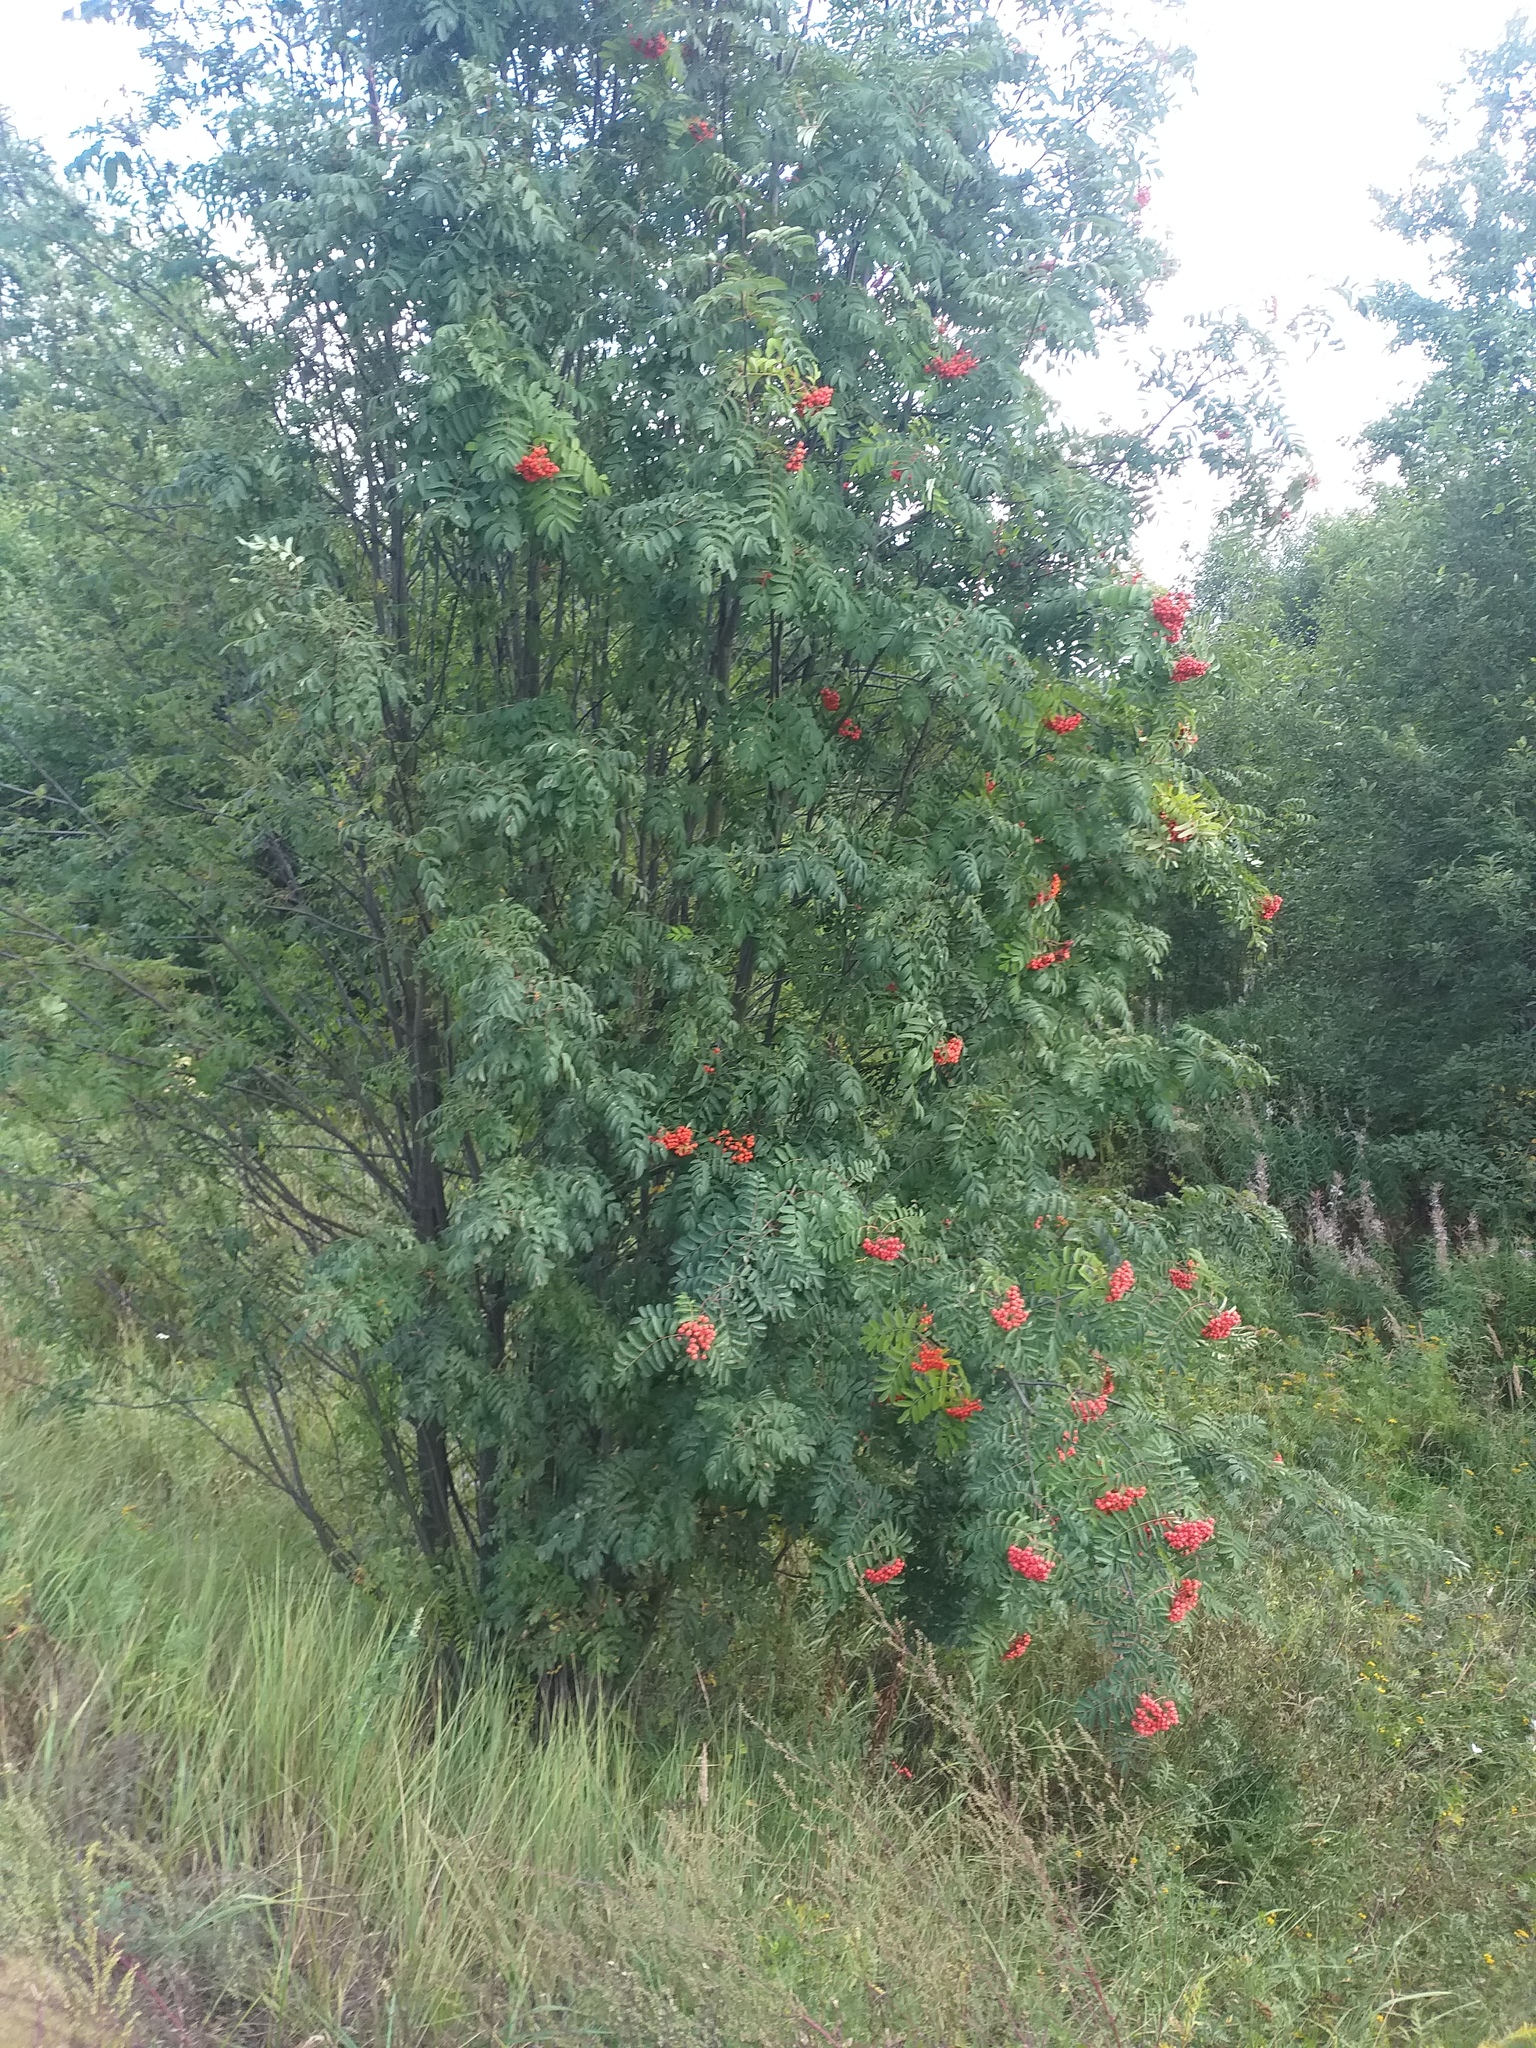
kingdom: Plantae
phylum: Tracheophyta
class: Magnoliopsida
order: Rosales
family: Rosaceae
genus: Sorbus
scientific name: Sorbus aucuparia
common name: Rowan
